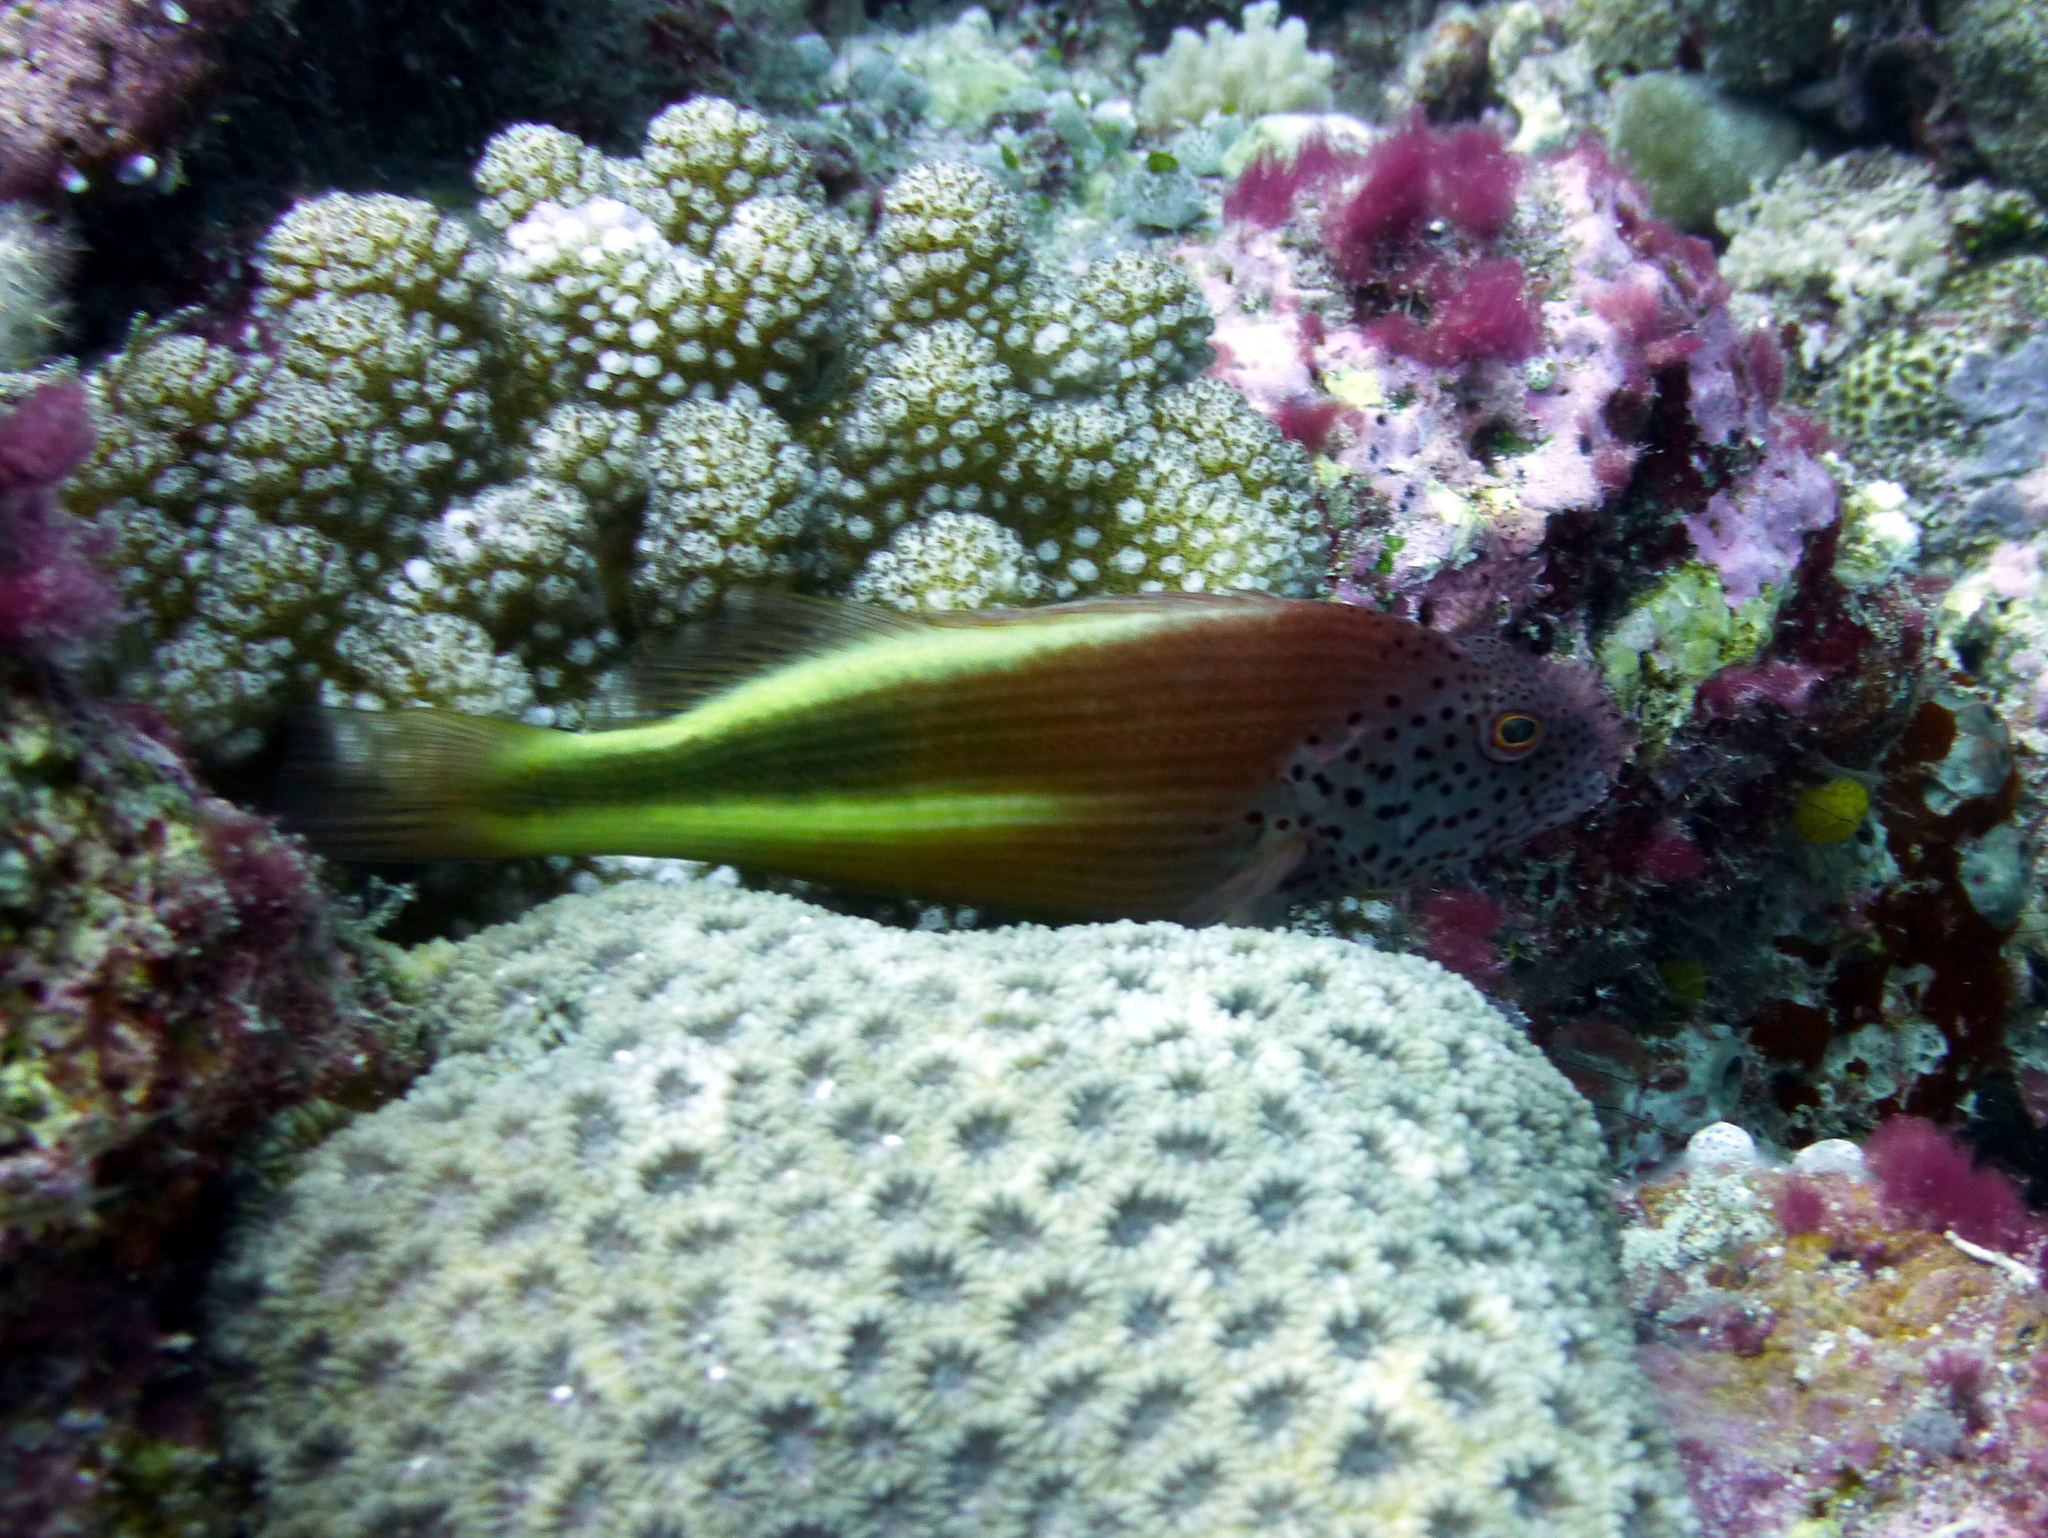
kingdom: Animalia
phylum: Chordata
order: Perciformes
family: Cirrhitidae
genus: Paracirrhites
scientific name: Paracirrhites forsteri
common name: Freckled hawkfish
